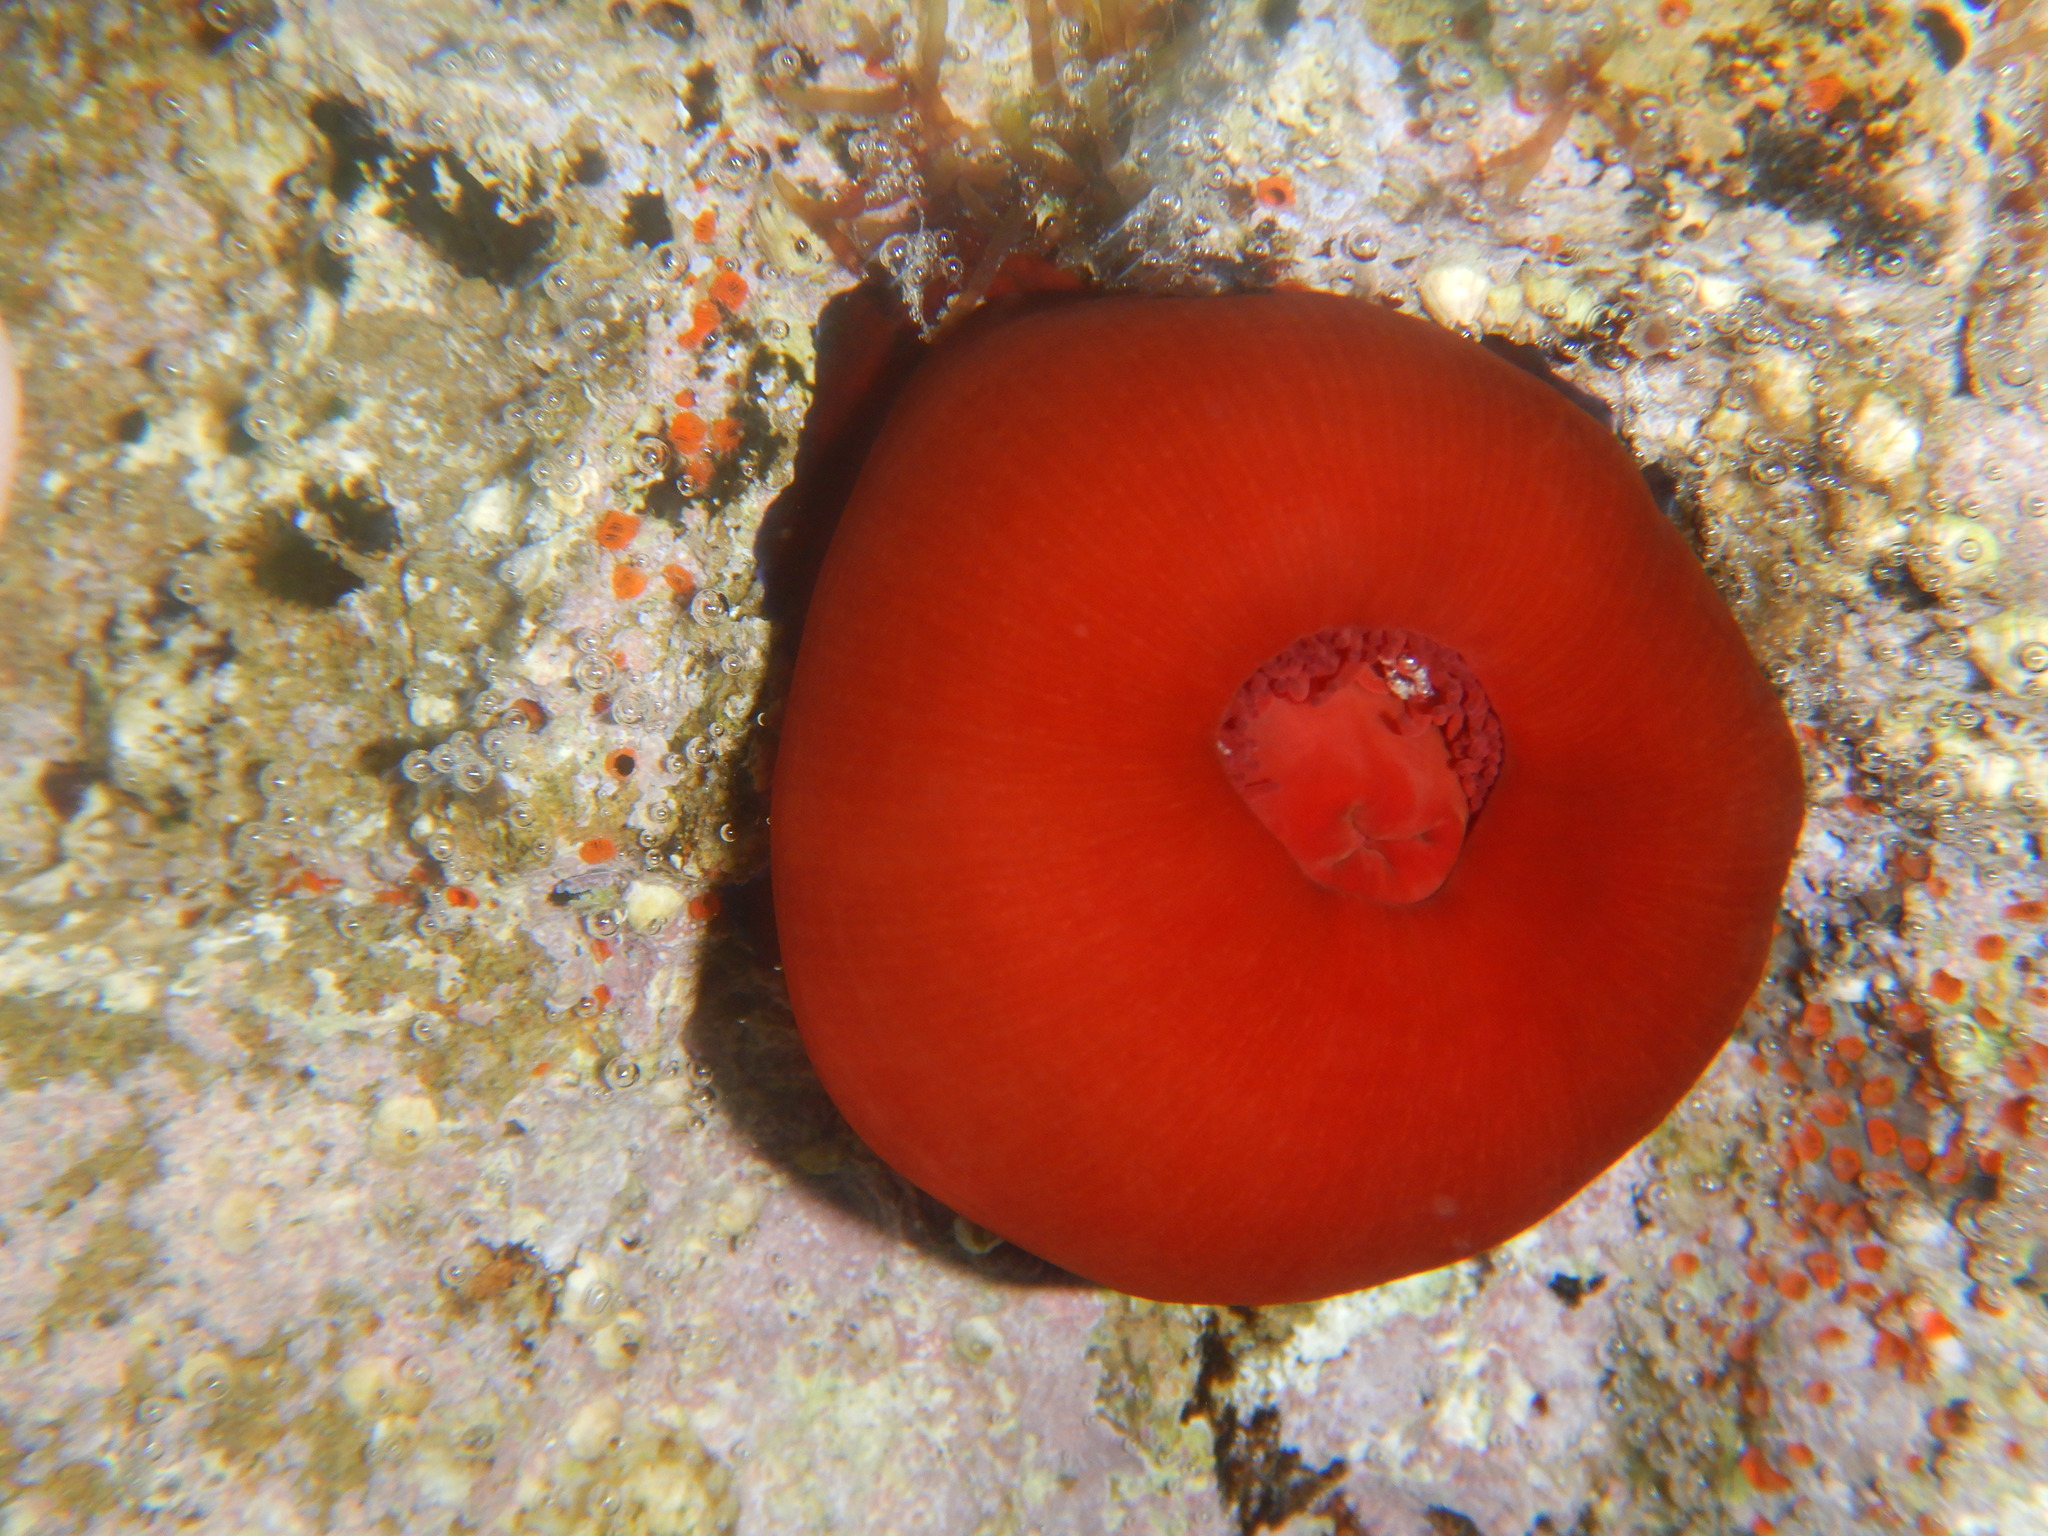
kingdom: Animalia
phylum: Cnidaria
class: Anthozoa
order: Actiniaria
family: Actiniidae
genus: Actinia
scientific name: Actinia mediterranea
